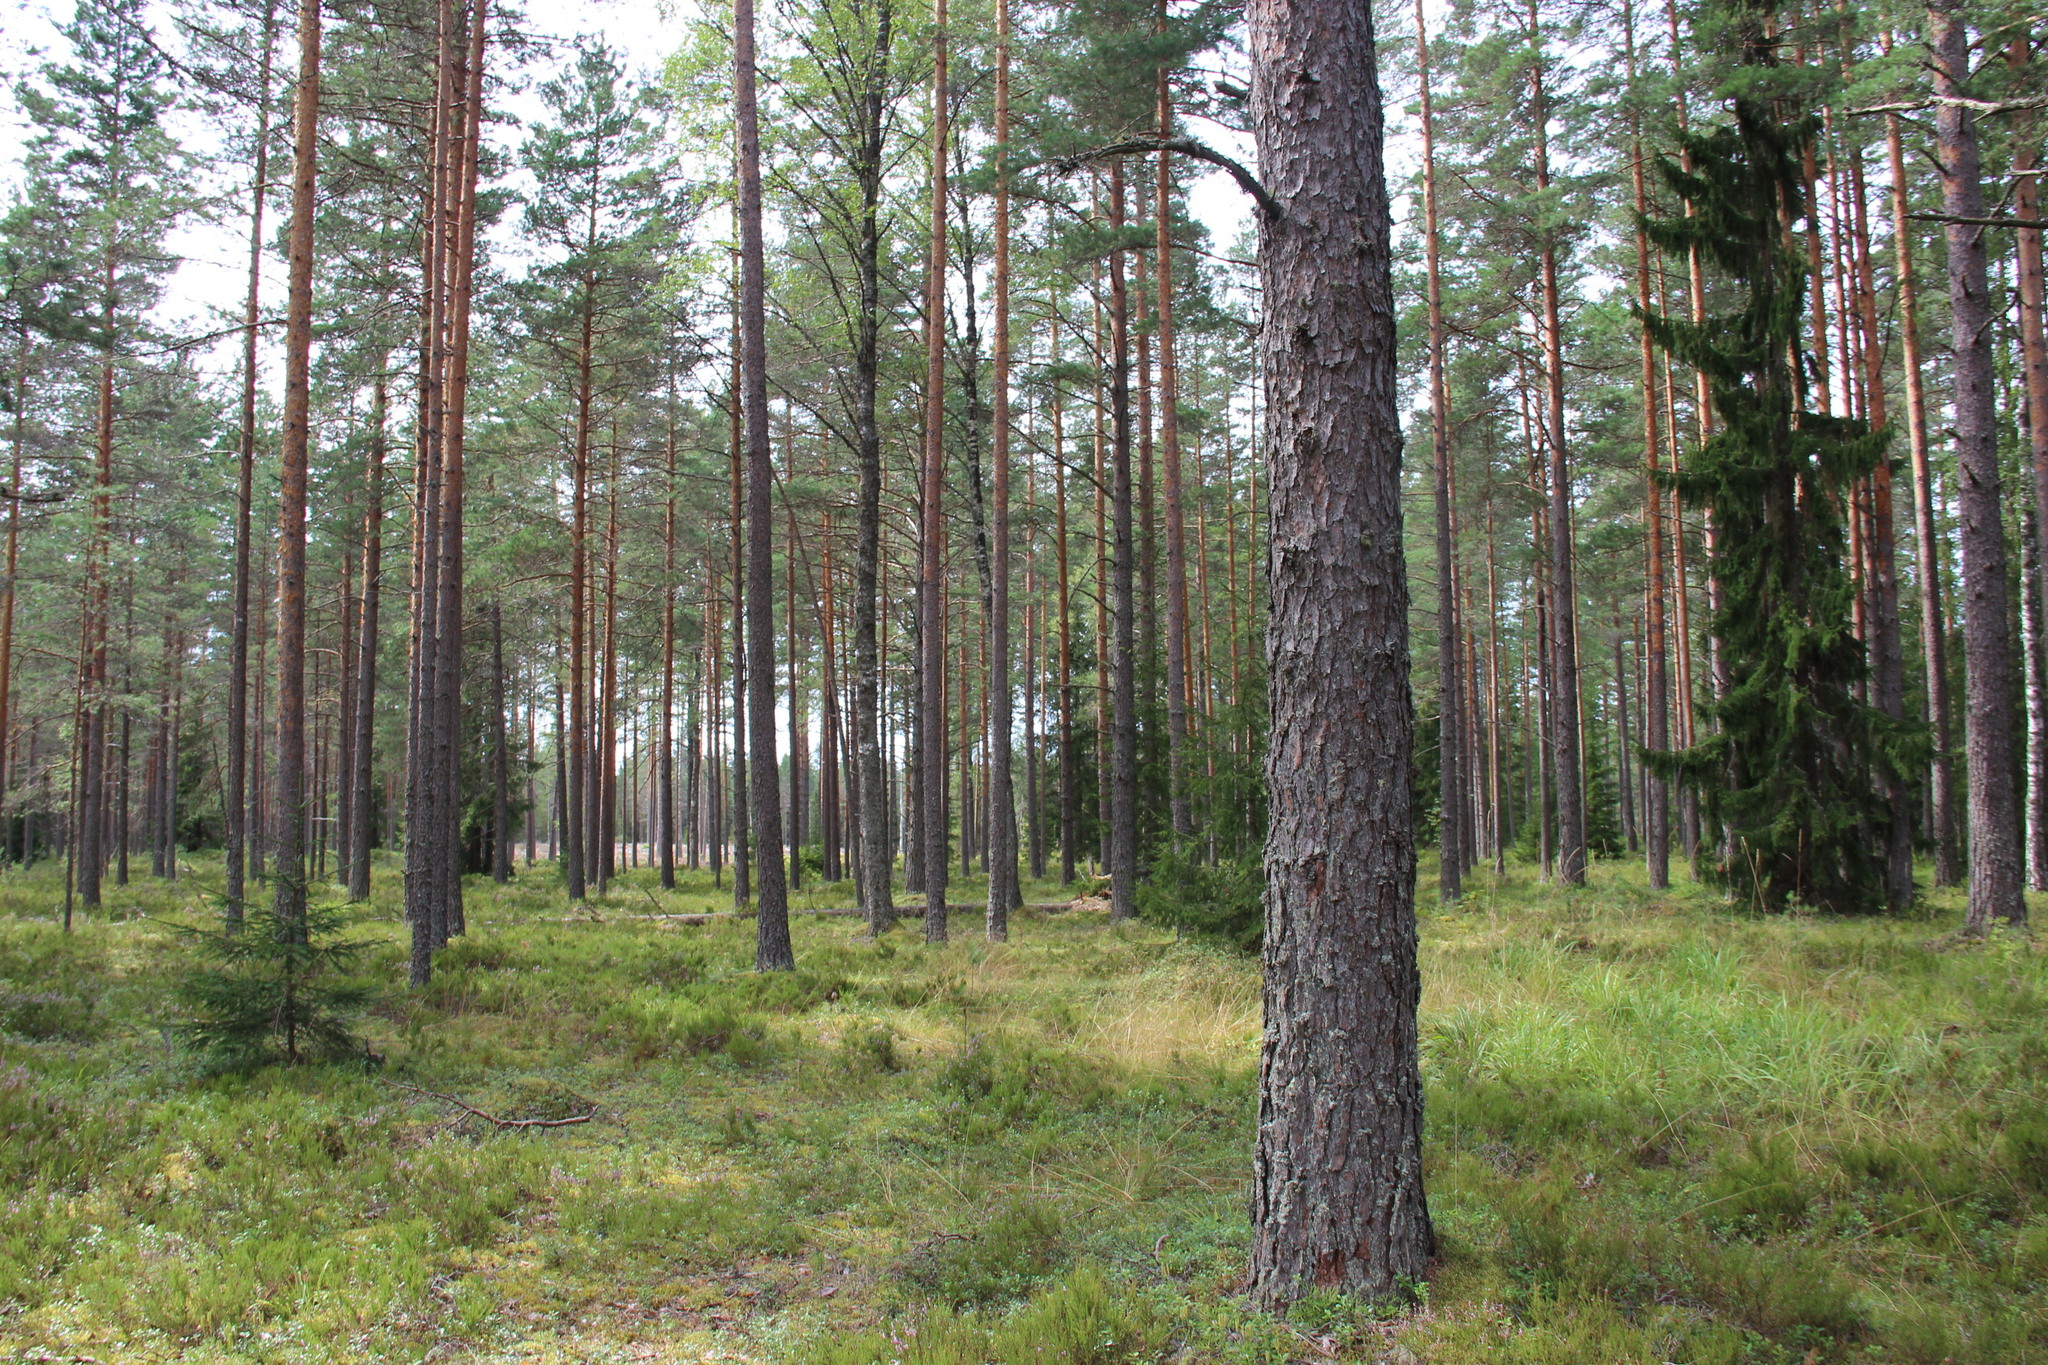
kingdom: Plantae
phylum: Tracheophyta
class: Pinopsida
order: Pinales
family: Pinaceae
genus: Pinus
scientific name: Pinus sylvestris
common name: Scots pine
